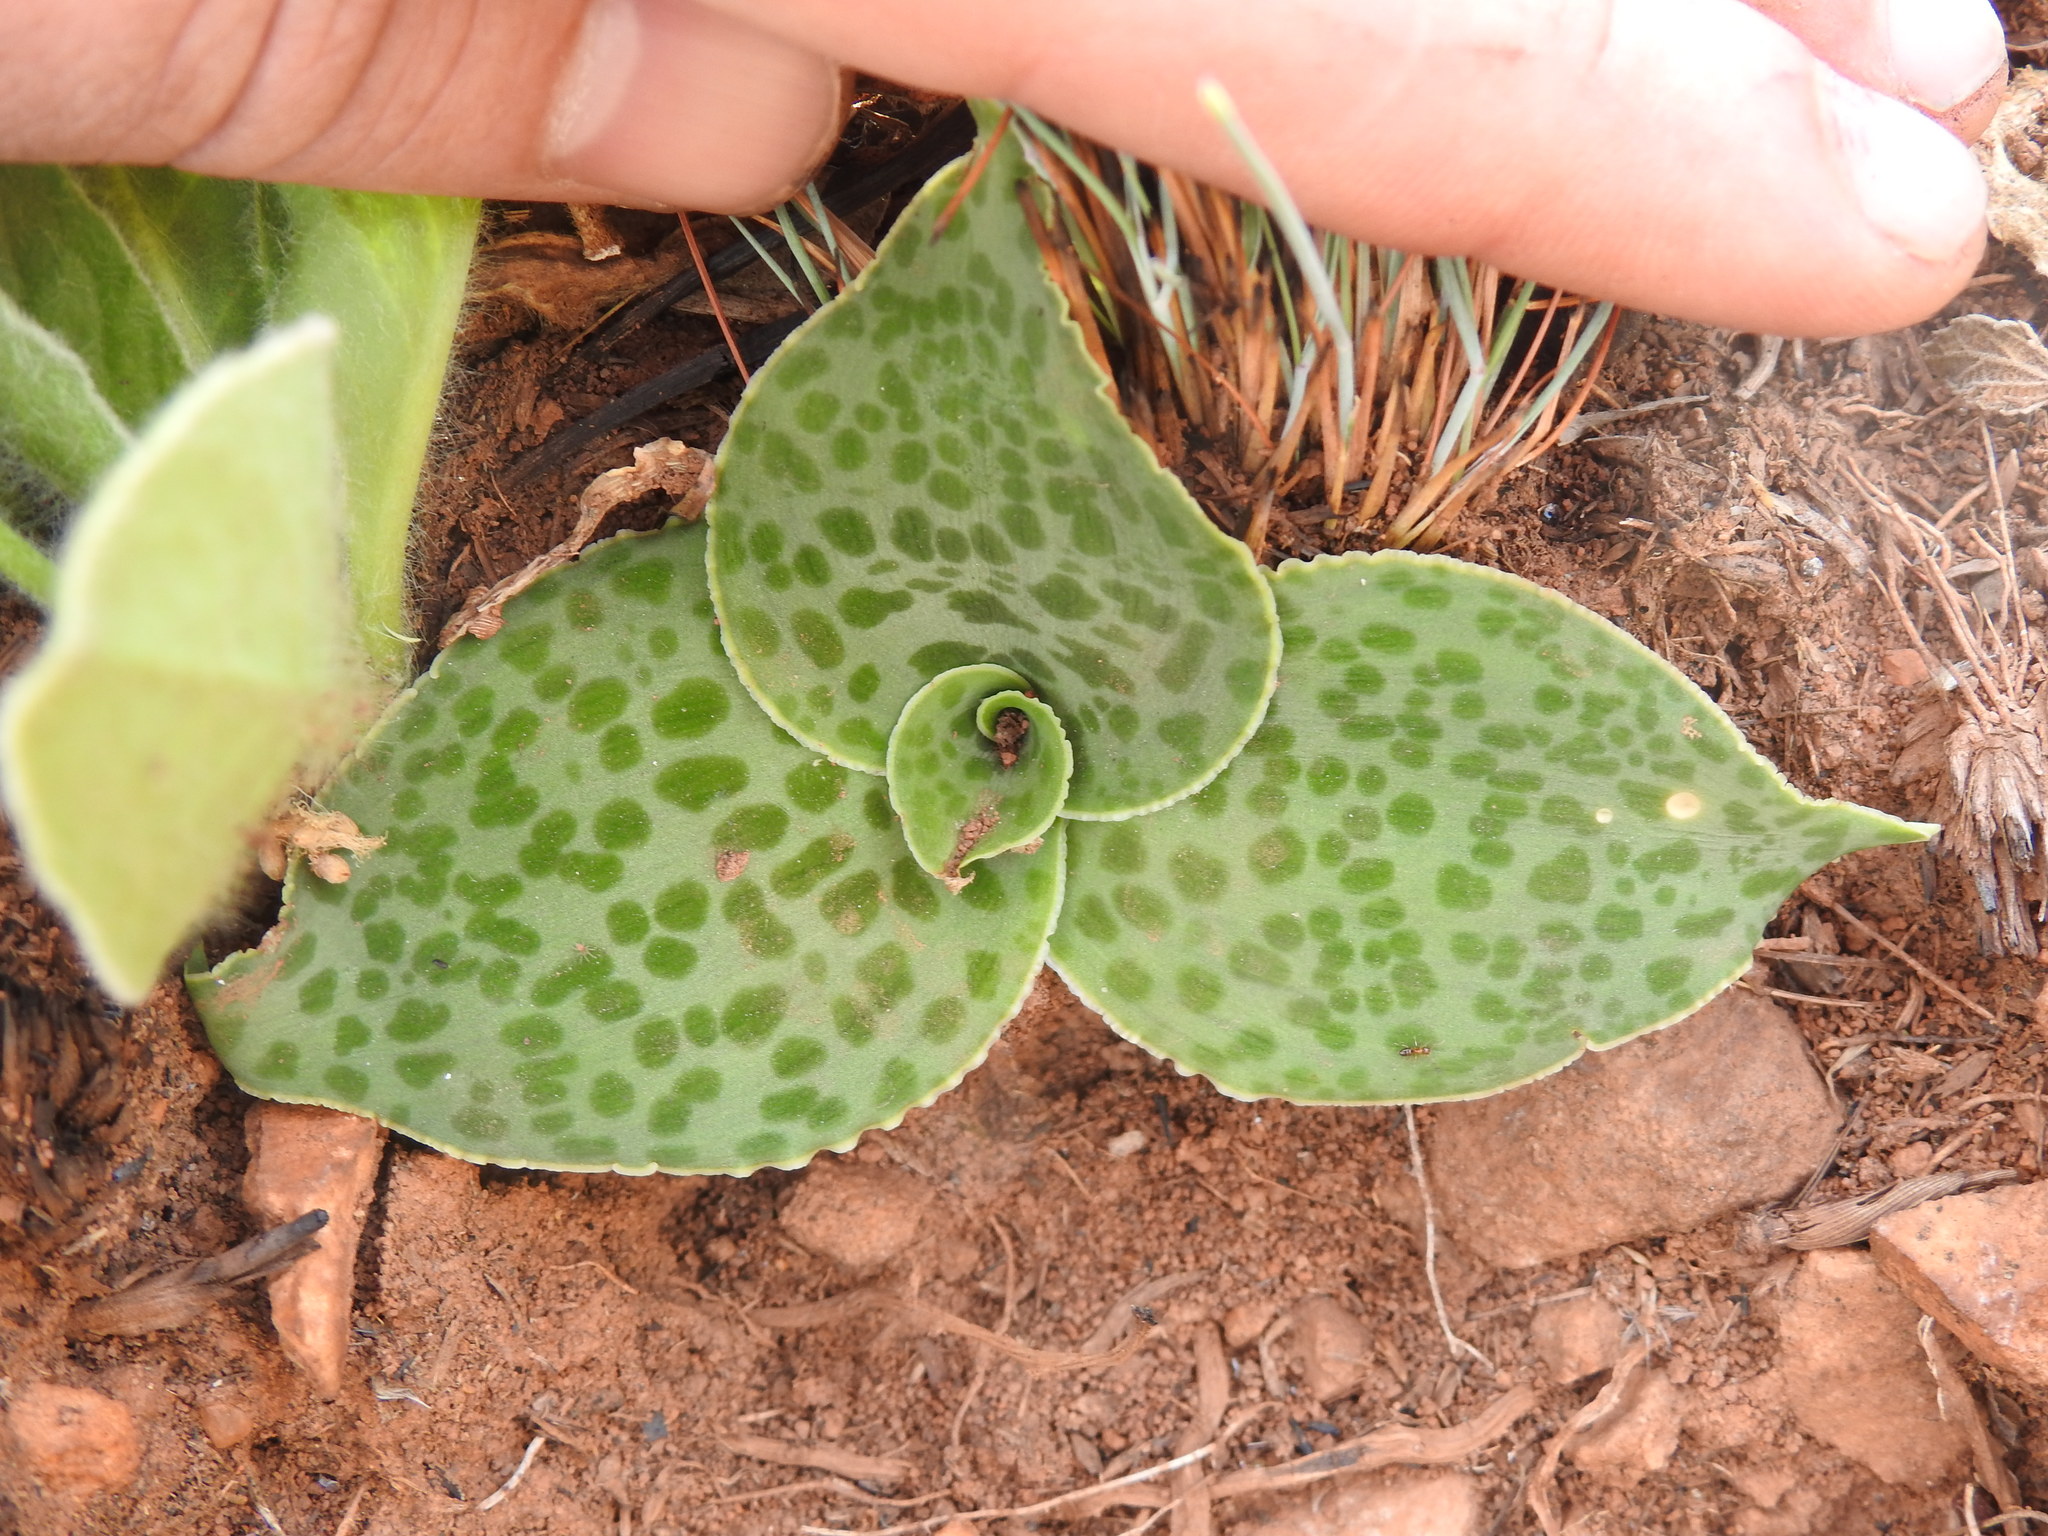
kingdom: Plantae
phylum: Tracheophyta
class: Liliopsida
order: Asparagales
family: Asparagaceae
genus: Ledebouria
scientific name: Ledebouria ovatifolia
